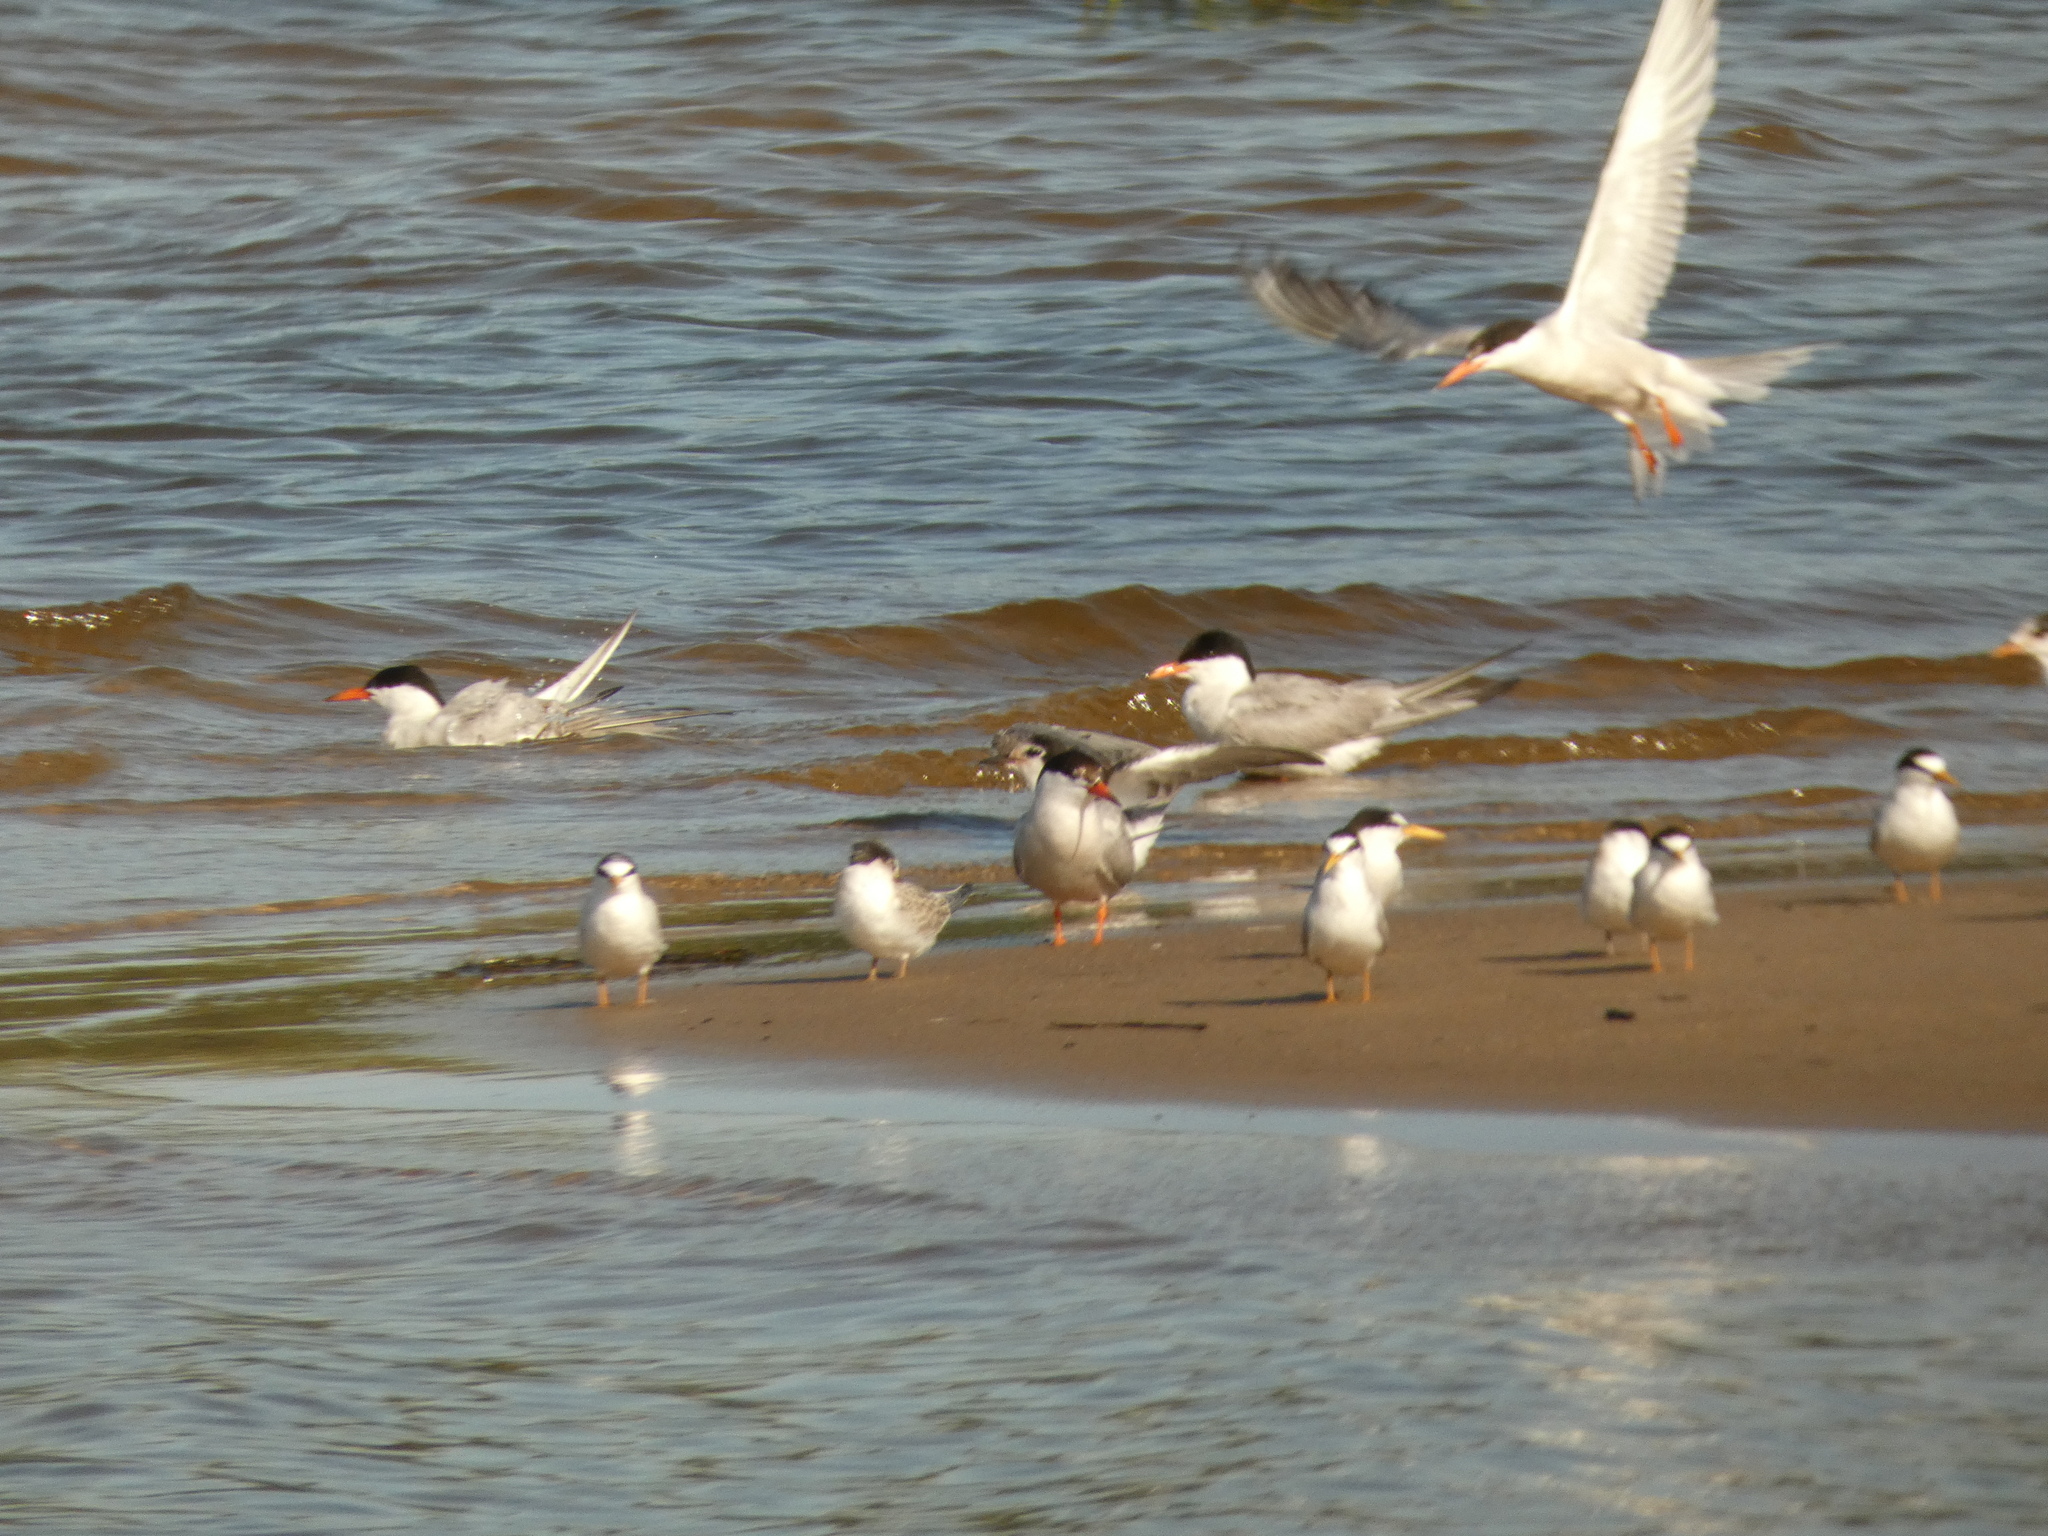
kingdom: Animalia
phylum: Chordata
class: Aves
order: Charadriiformes
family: Laridae
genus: Sternula
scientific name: Sternula albifrons
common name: Little tern
